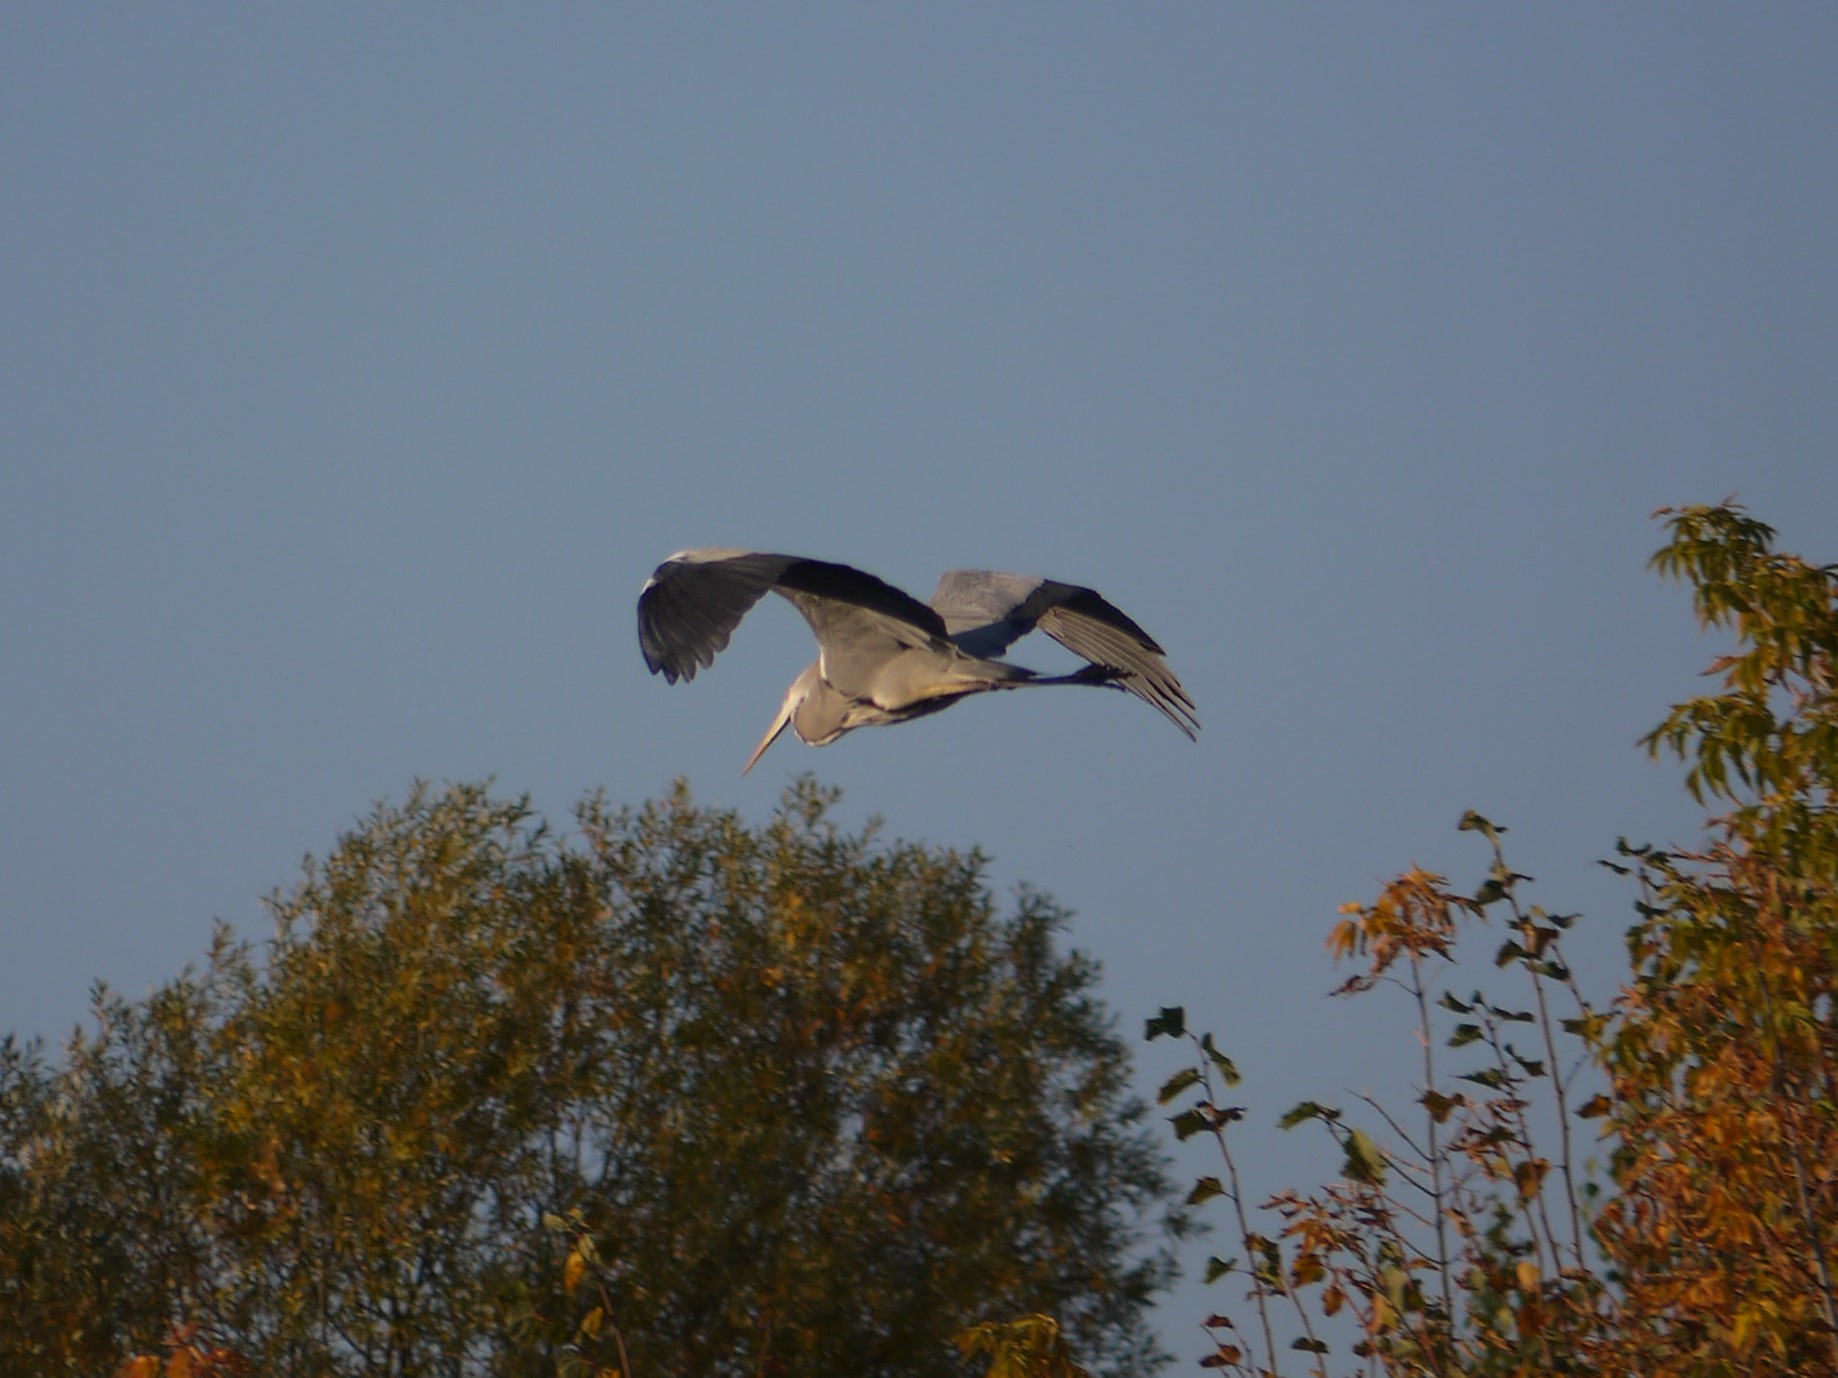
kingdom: Animalia
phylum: Chordata
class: Aves
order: Pelecaniformes
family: Ardeidae
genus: Ardea
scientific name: Ardea cinerea
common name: Grey heron
